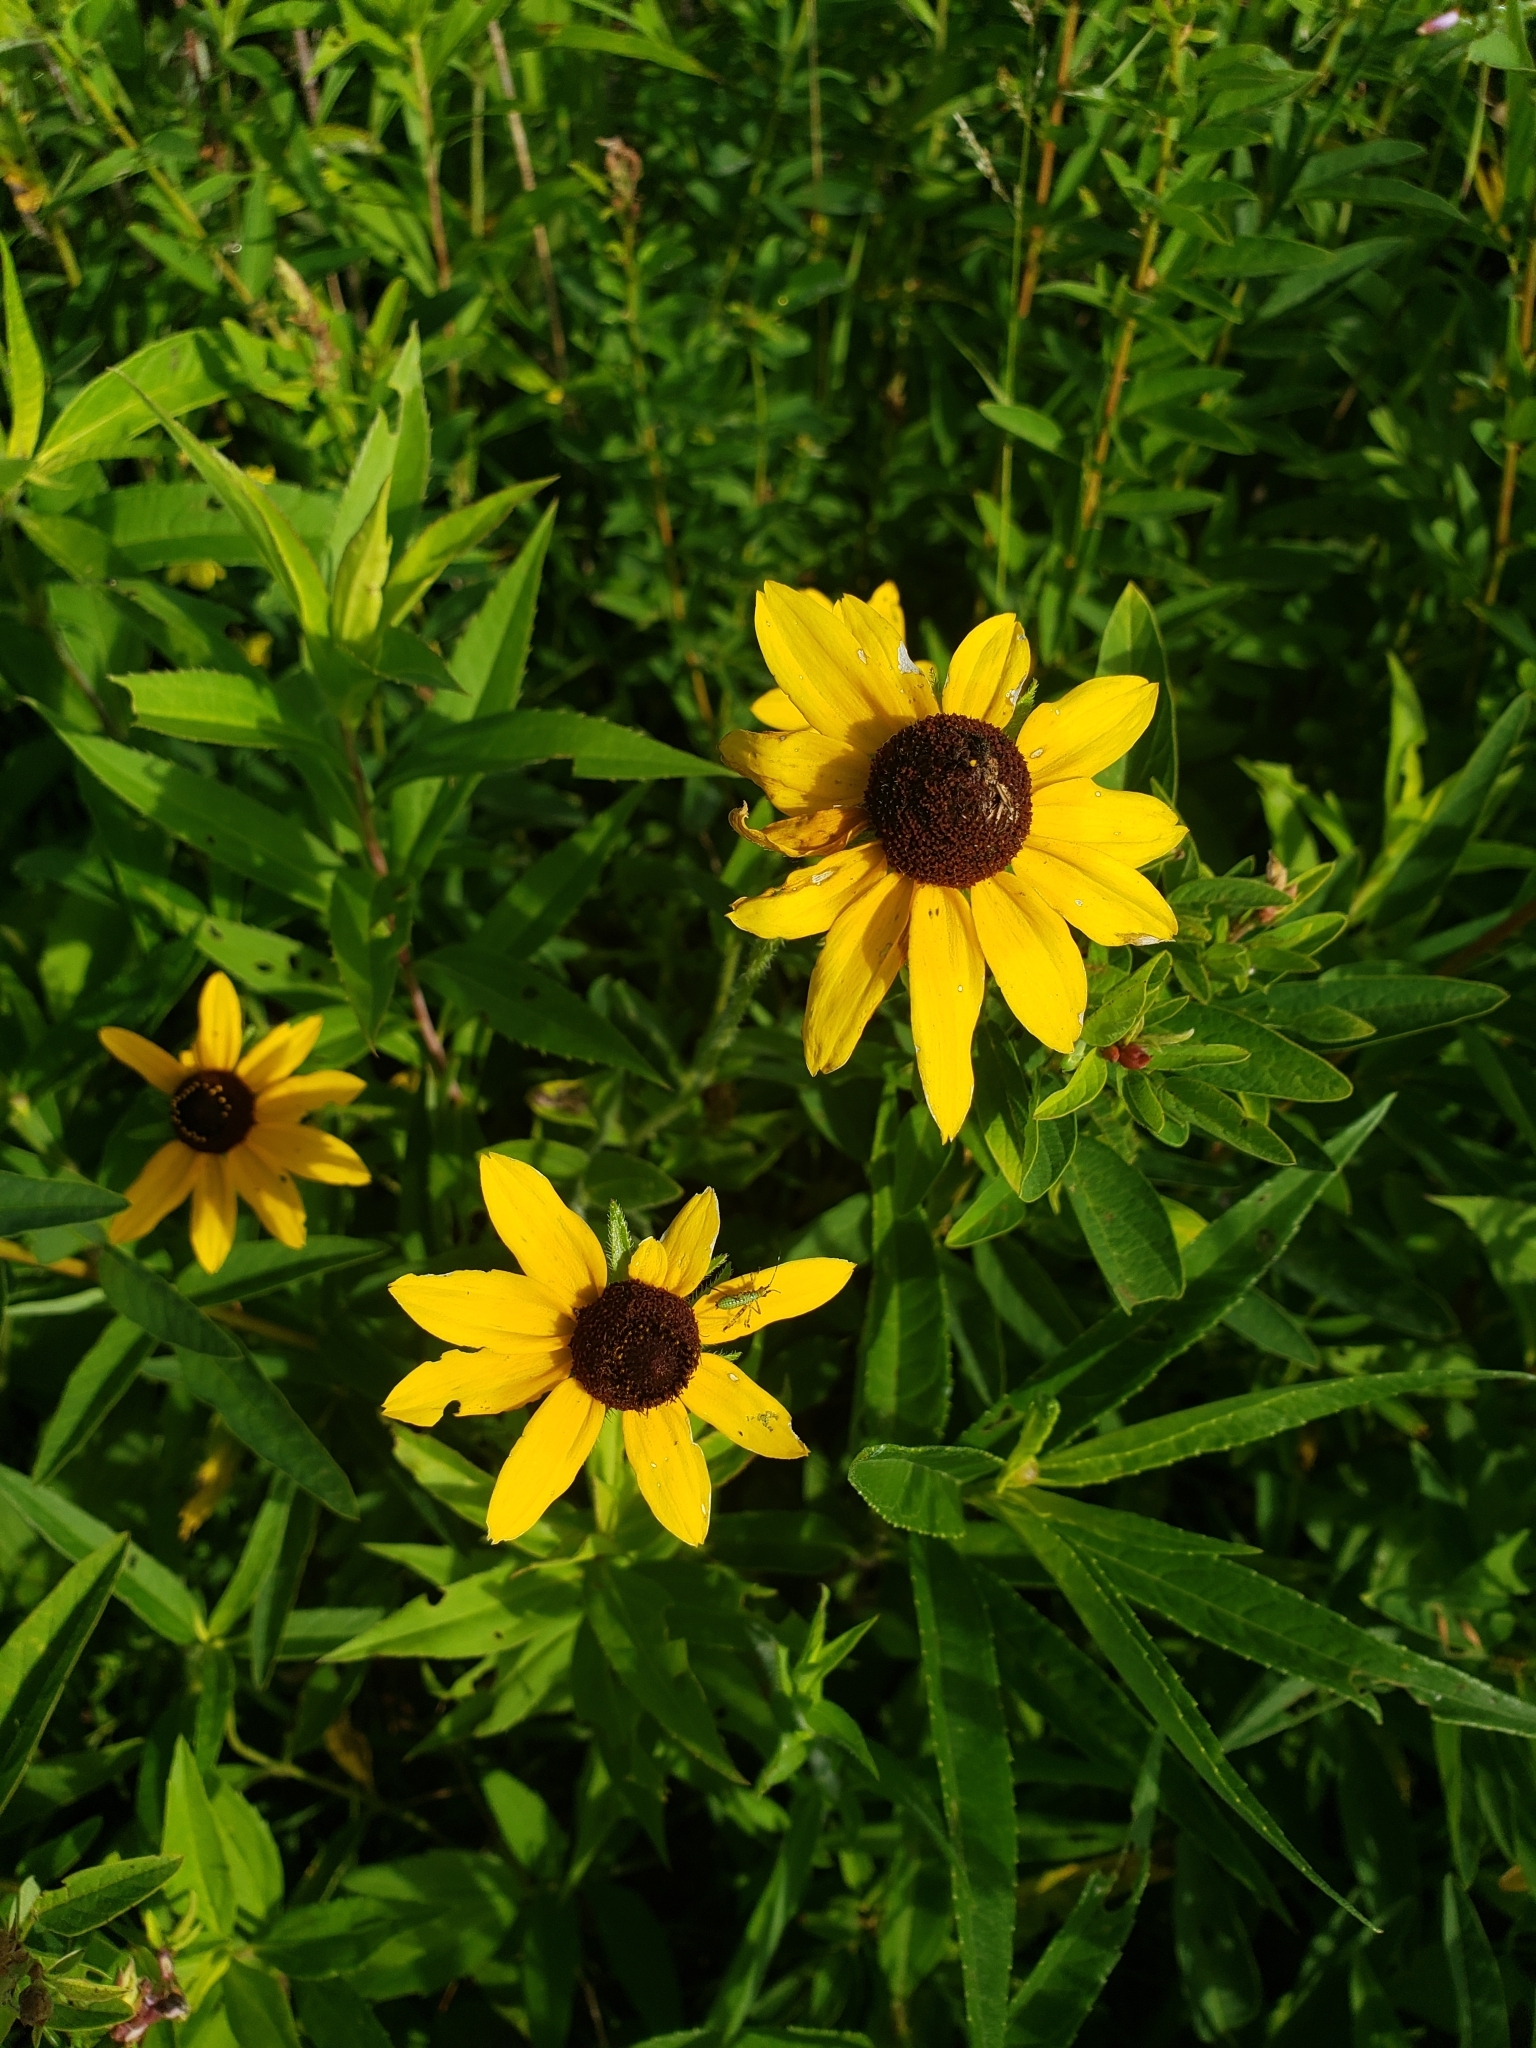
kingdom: Plantae
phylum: Tracheophyta
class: Magnoliopsida
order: Asterales
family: Asteraceae
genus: Rudbeckia
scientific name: Rudbeckia hirta
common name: Black-eyed-susan
